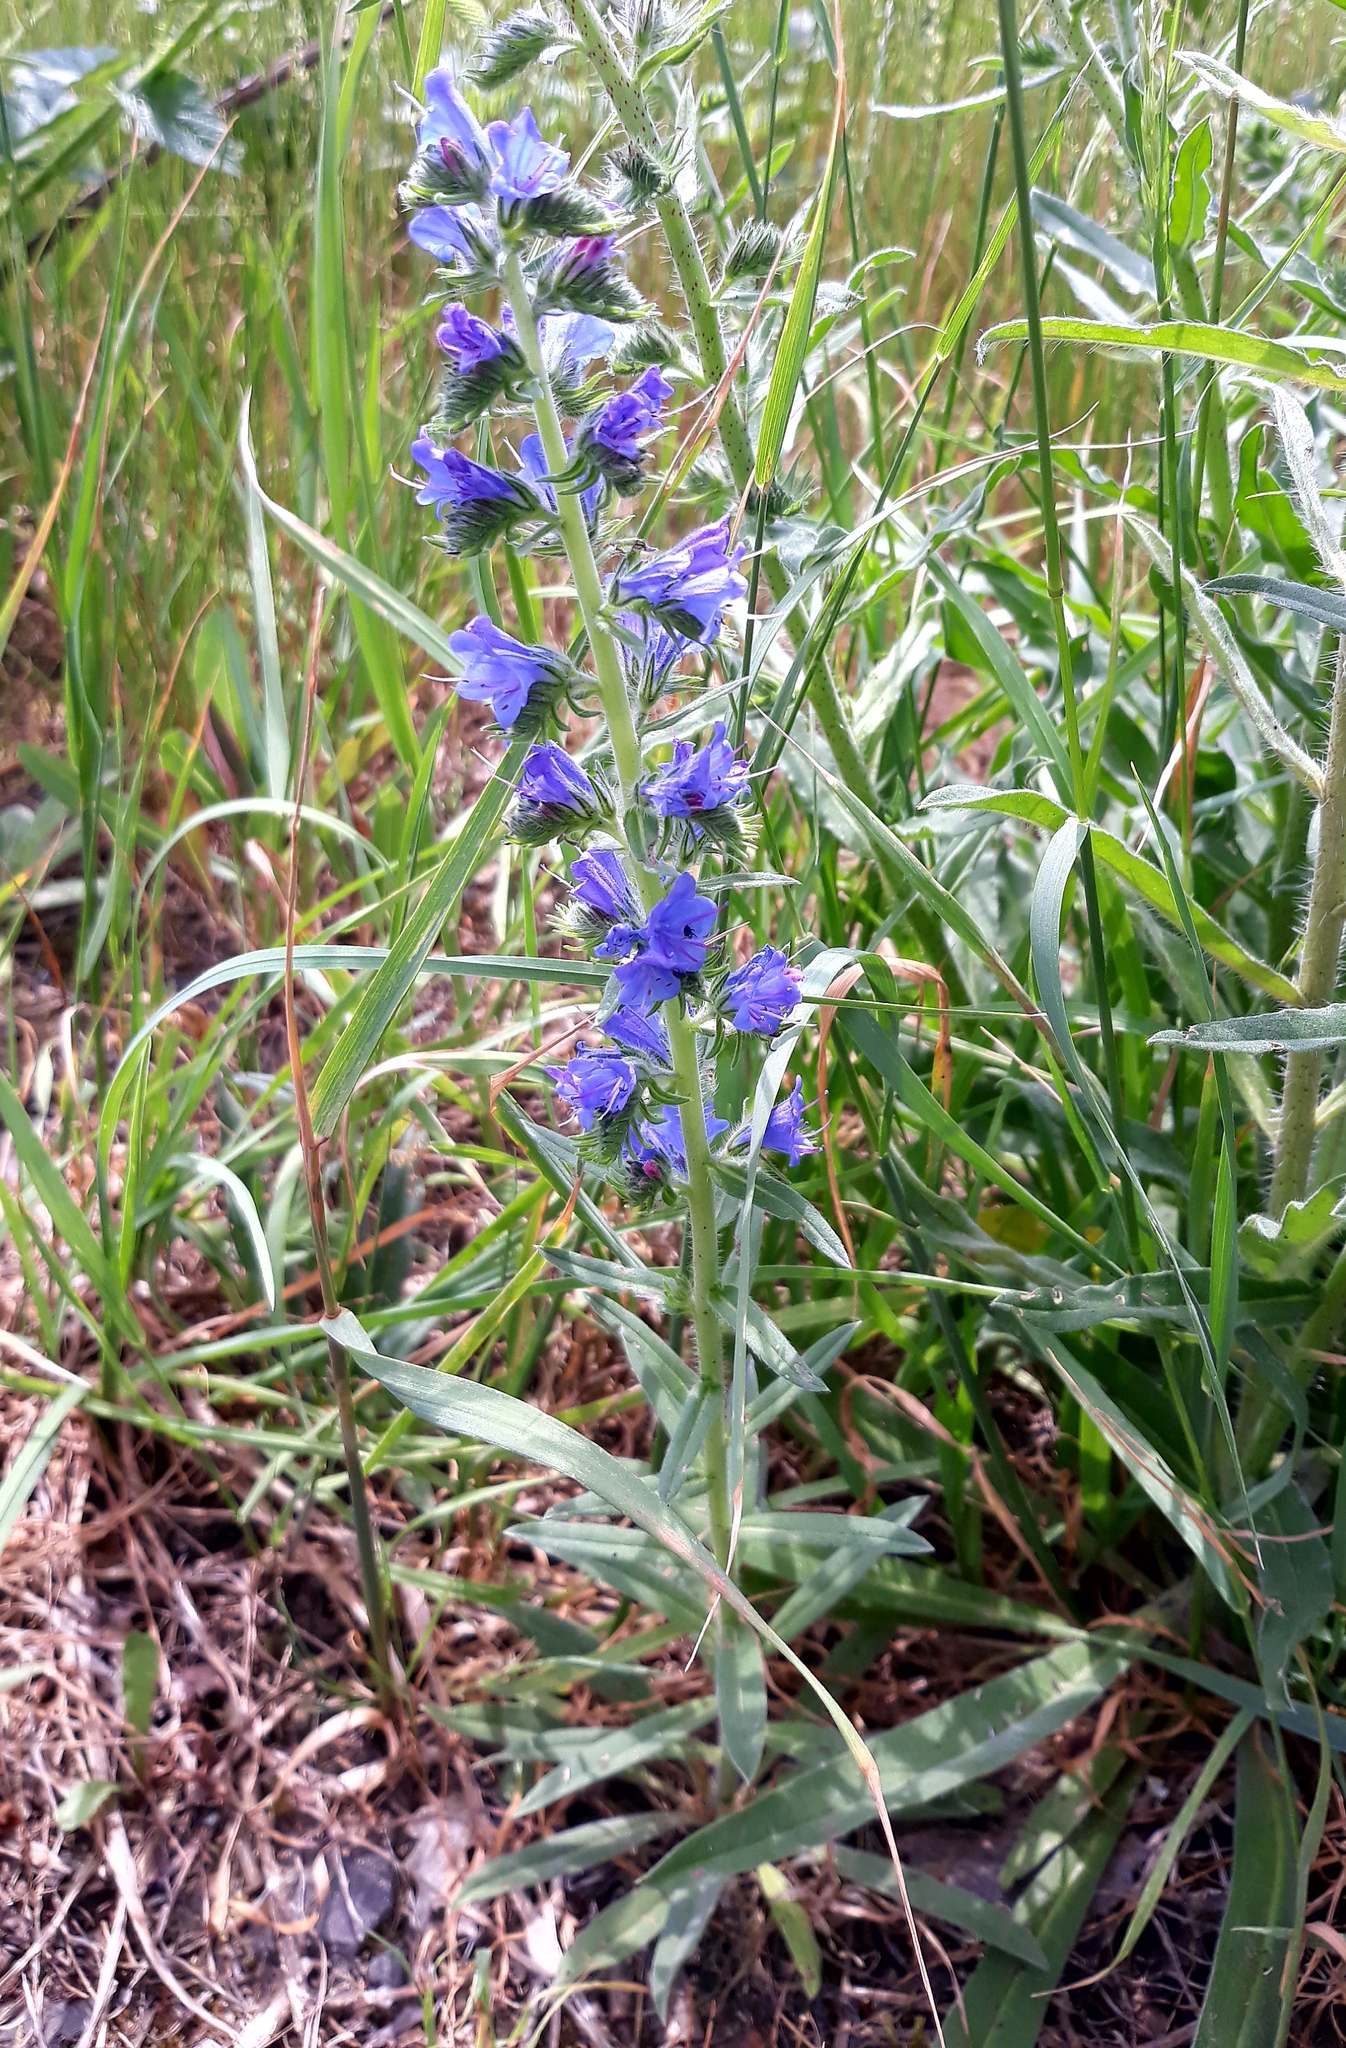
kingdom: Plantae
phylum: Tracheophyta
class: Magnoliopsida
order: Boraginales
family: Boraginaceae
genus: Echium
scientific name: Echium vulgare
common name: Common viper's bugloss
